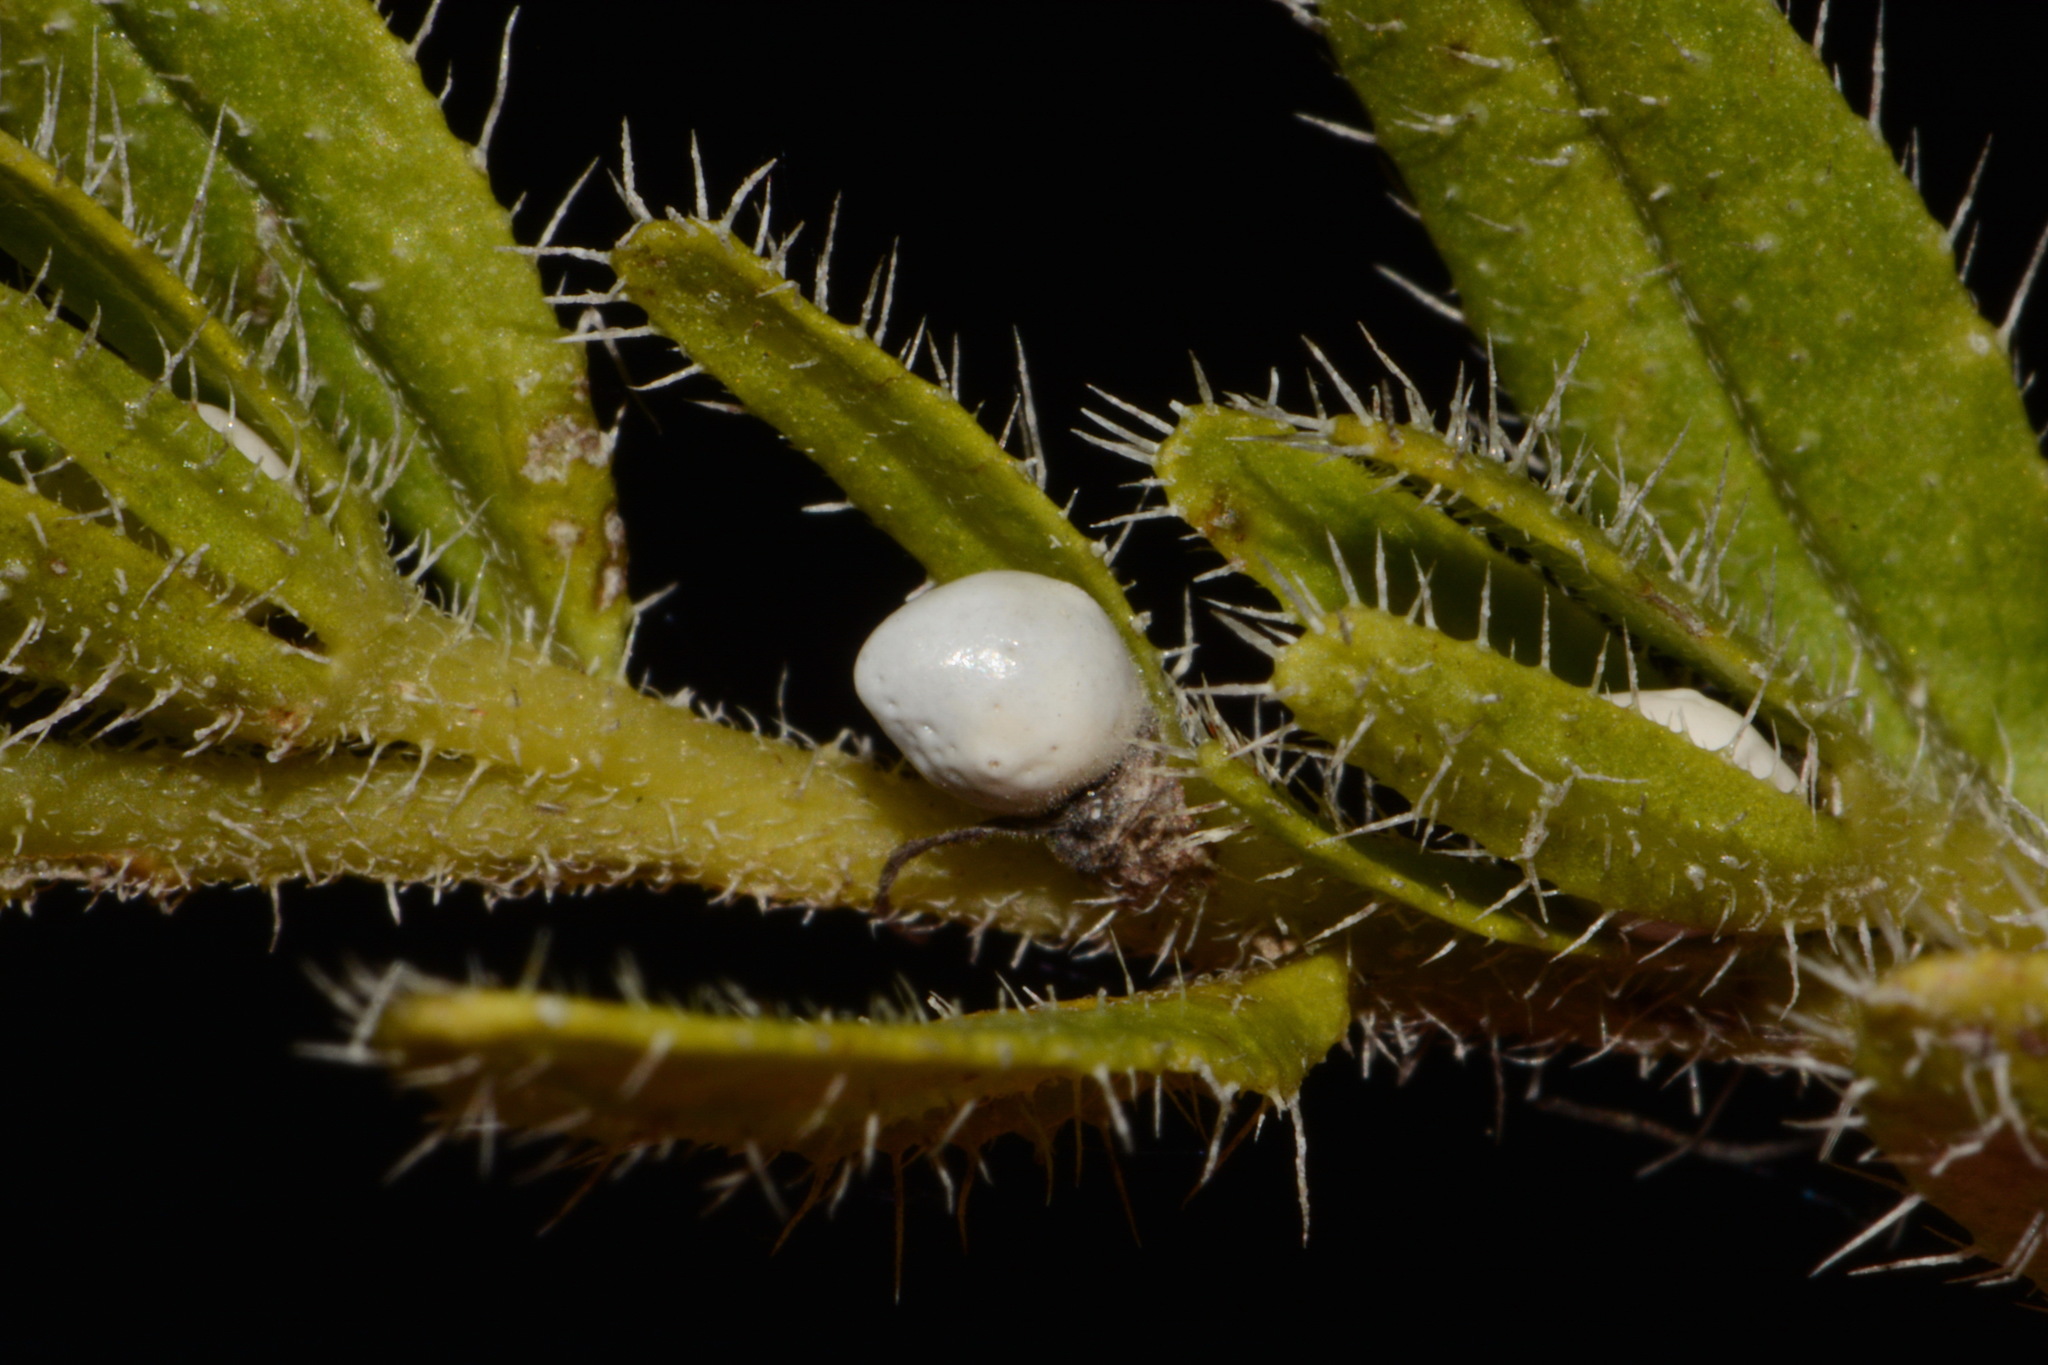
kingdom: Plantae
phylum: Tracheophyta
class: Magnoliopsida
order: Boraginales
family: Boraginaceae
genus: Lithospermum
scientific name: Lithospermum decipiens
